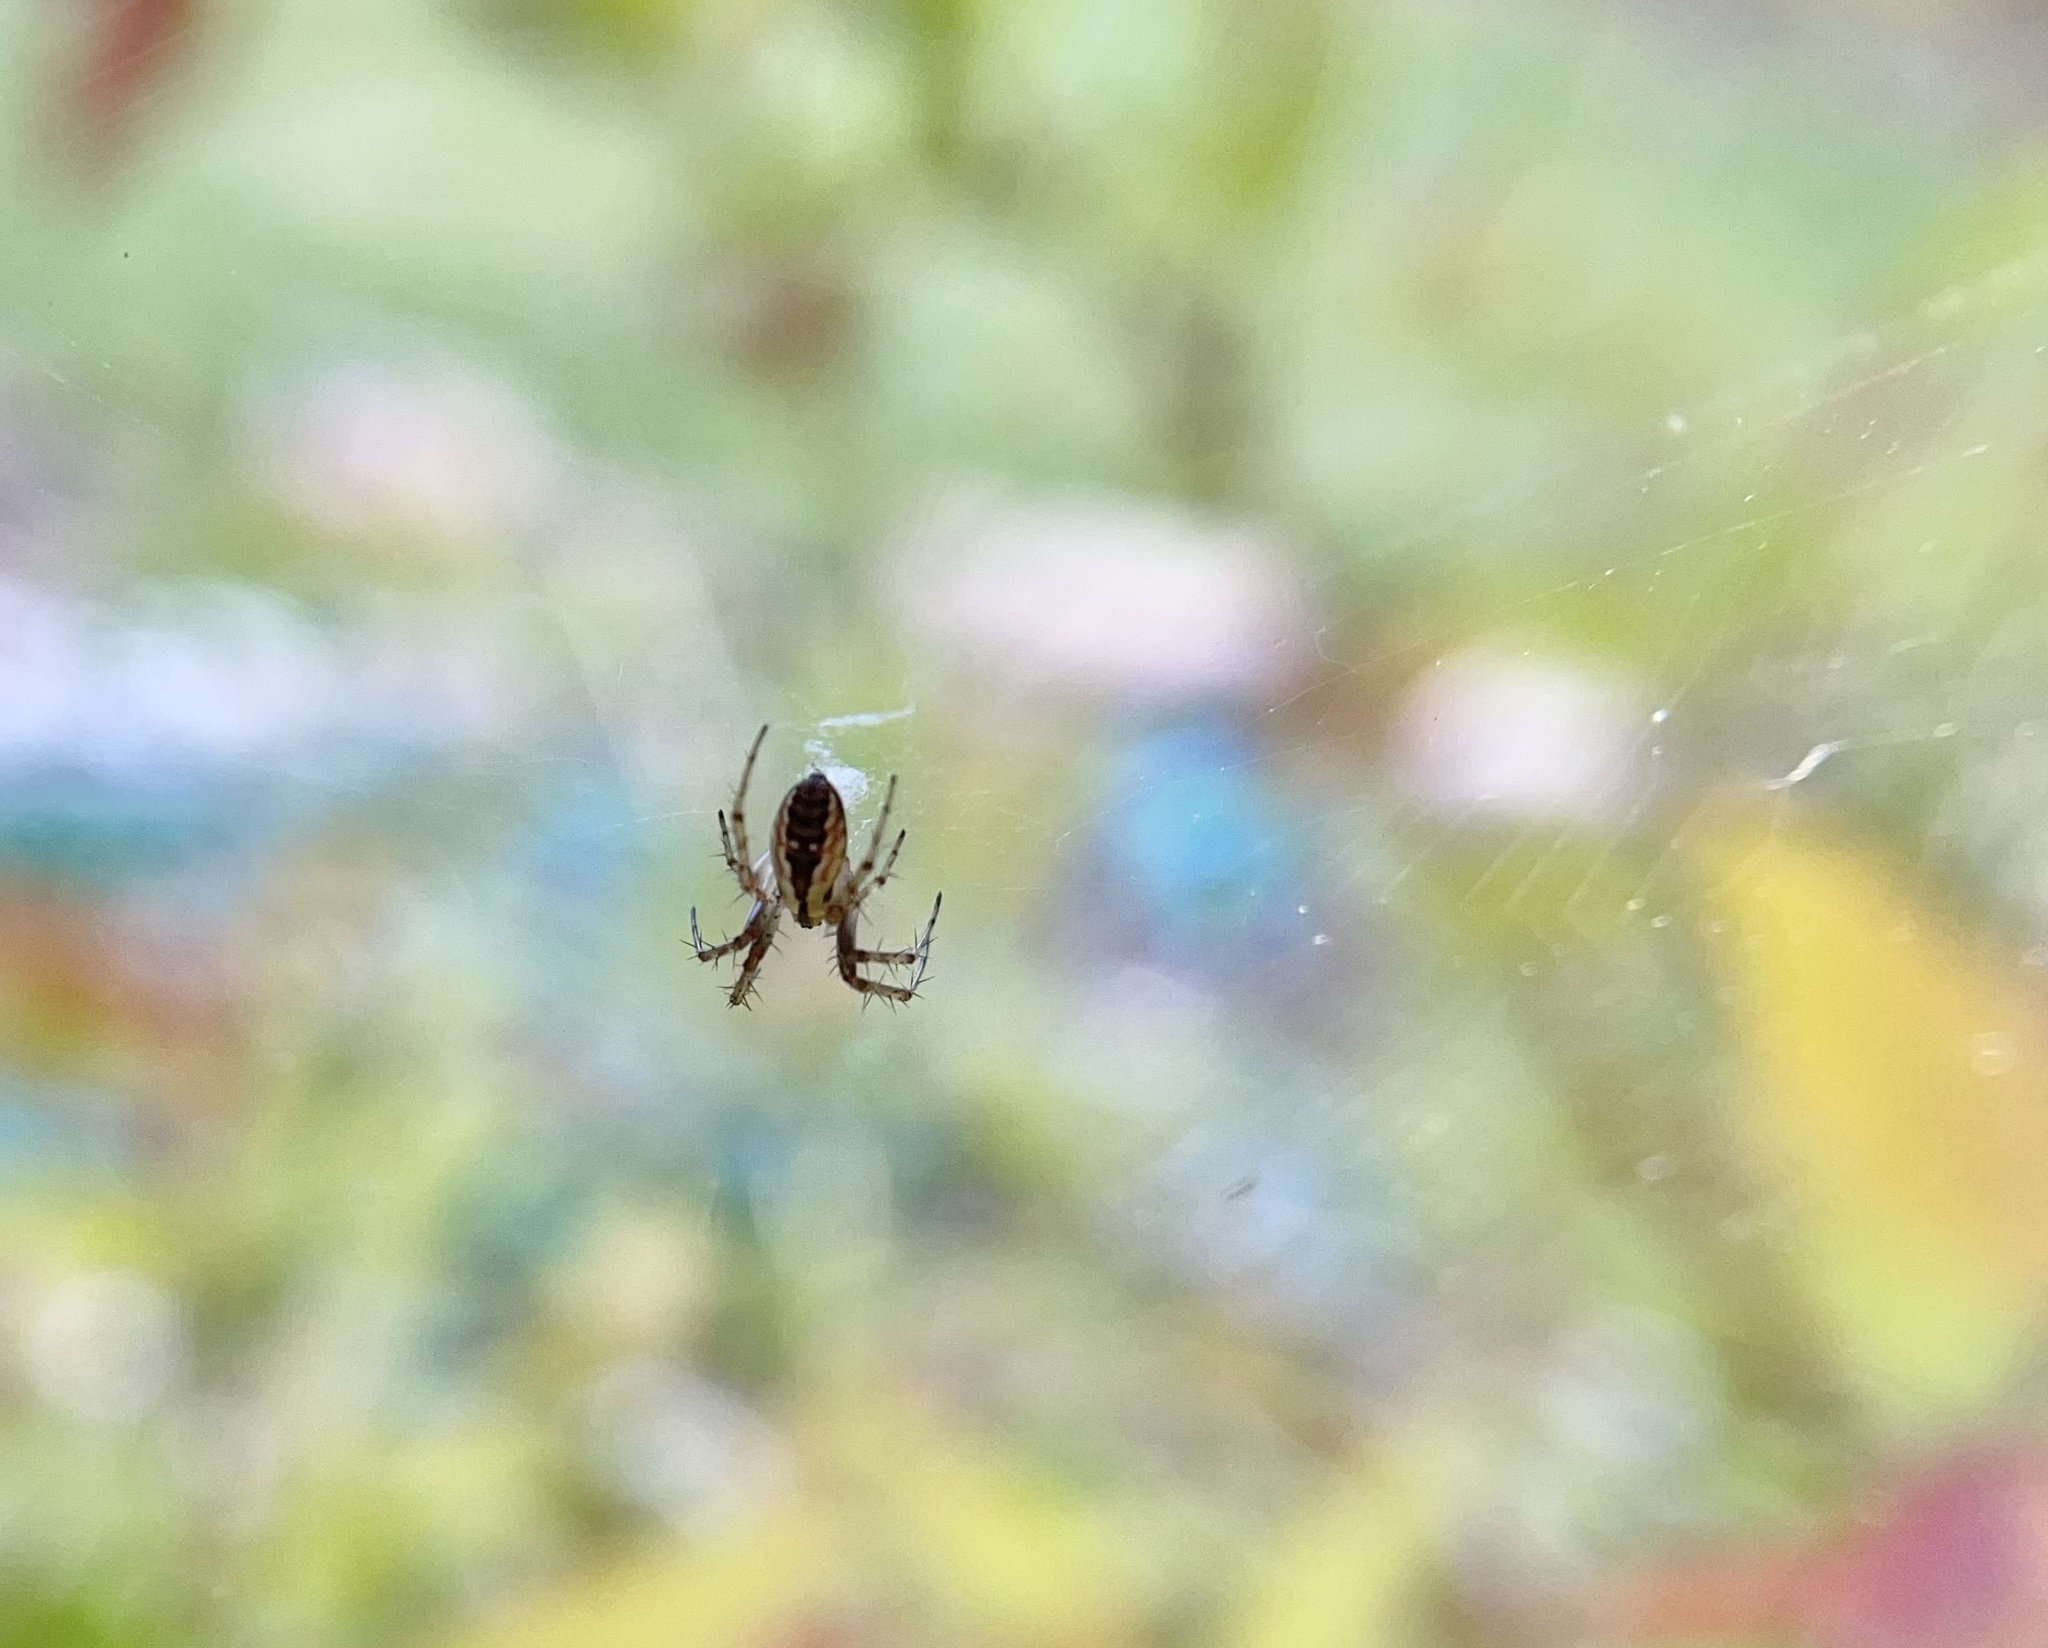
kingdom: Animalia
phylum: Arthropoda
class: Arachnida
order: Araneae
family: Araneidae
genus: Mangora
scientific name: Mangora placida
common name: Tuft-legged orbweaver
